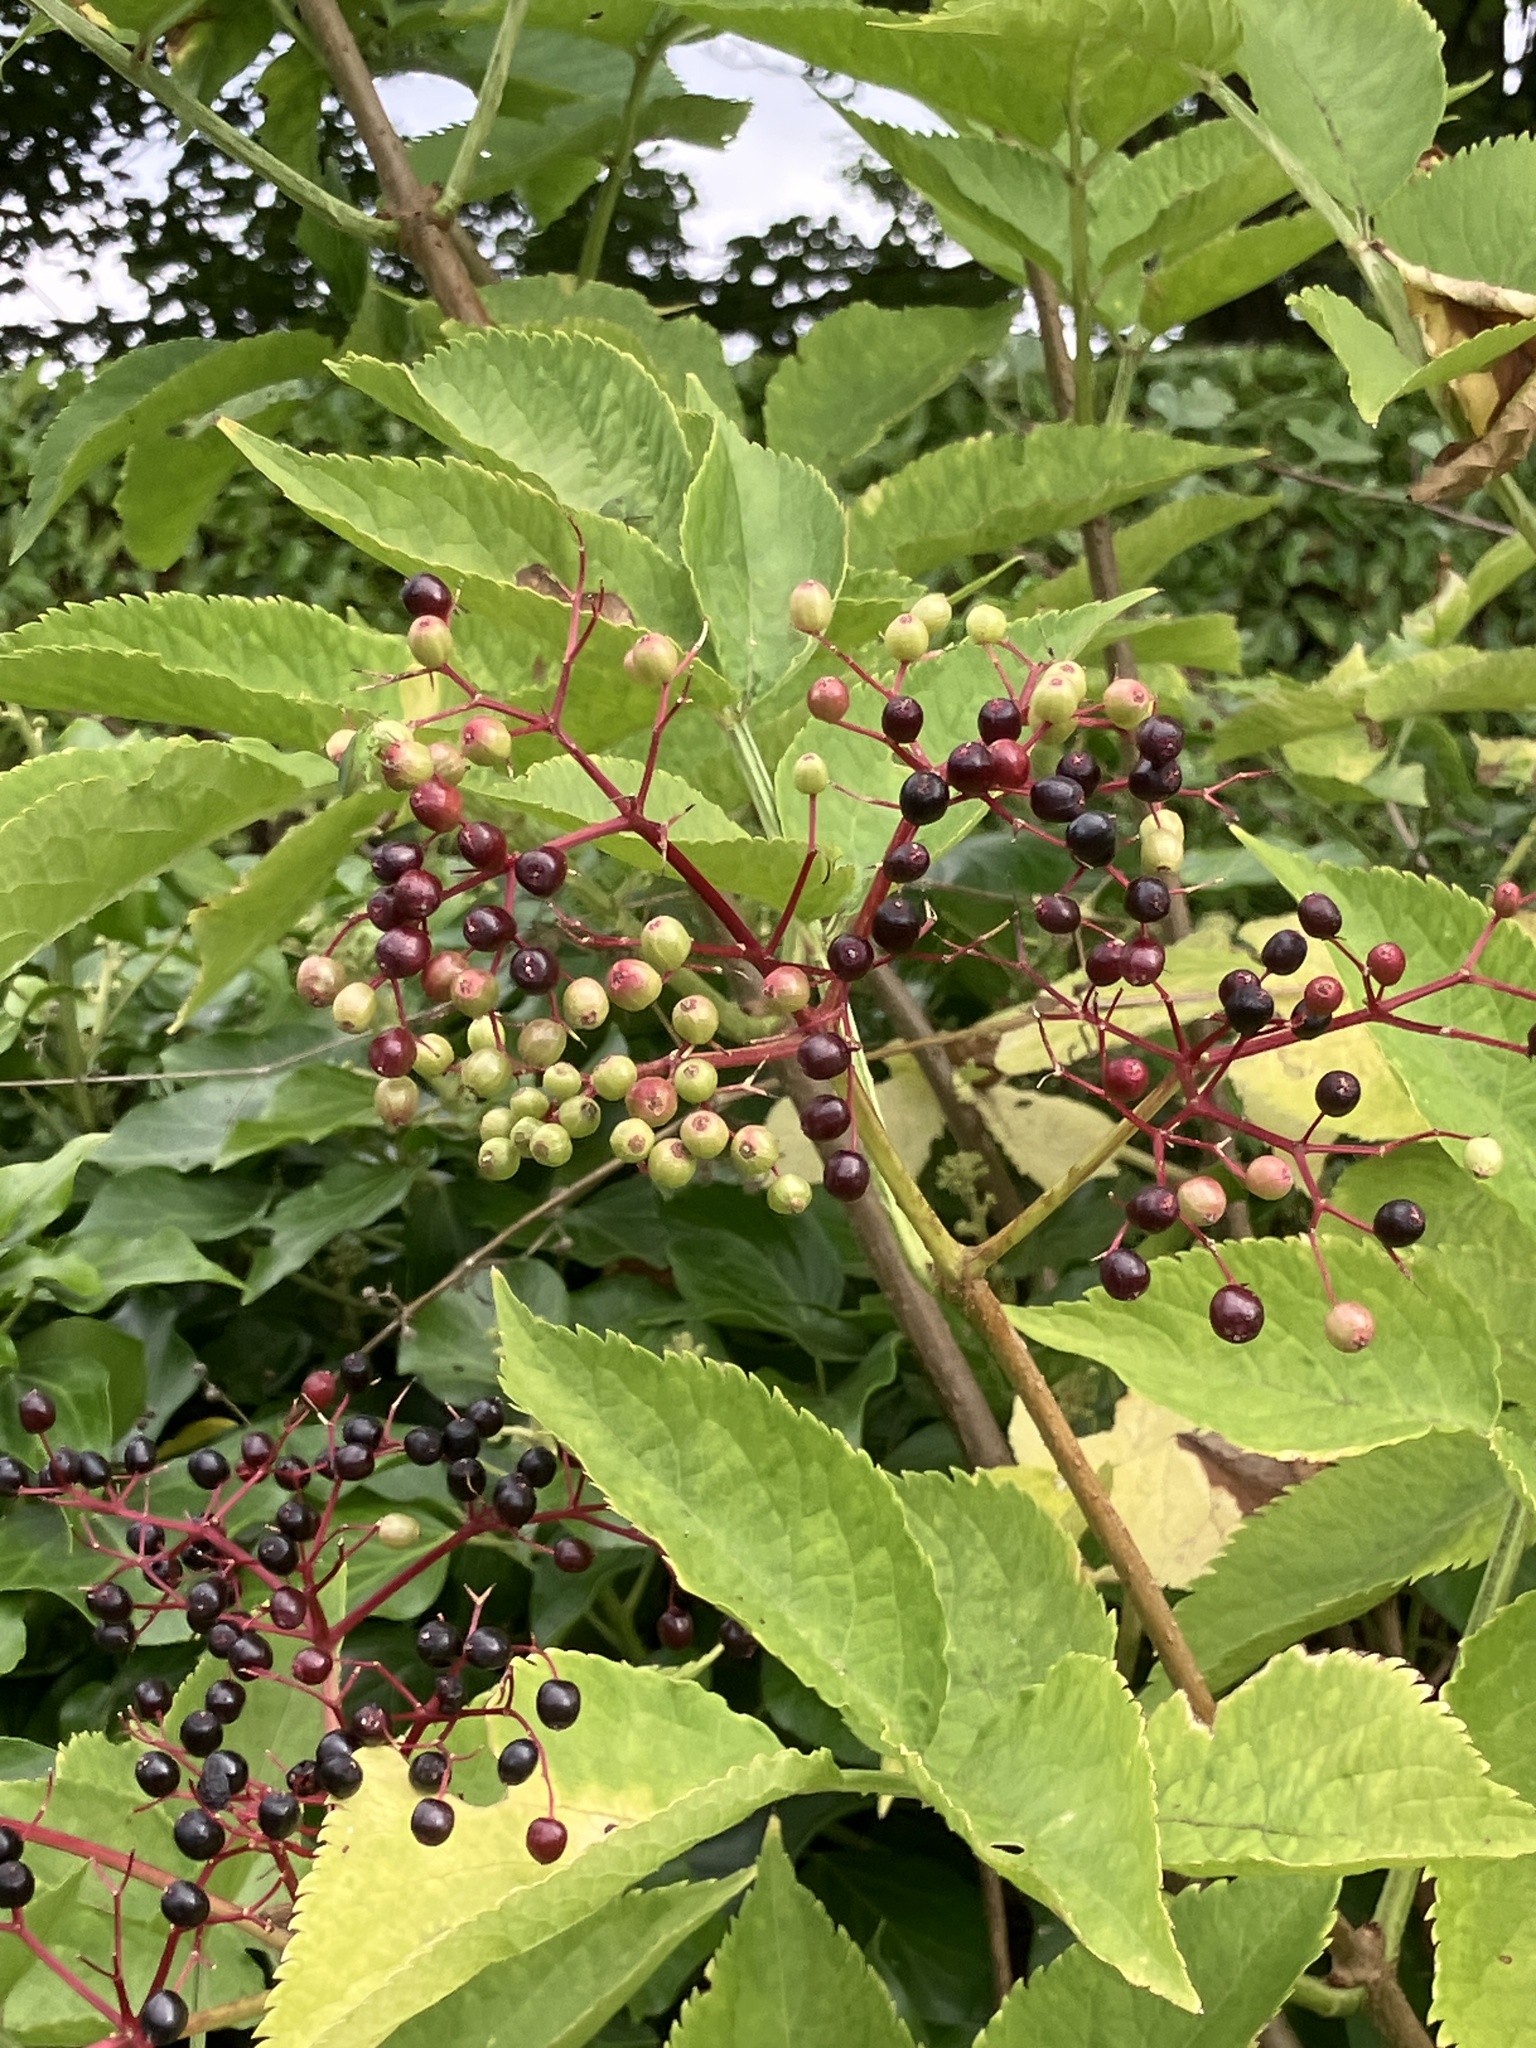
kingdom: Plantae
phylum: Tracheophyta
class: Magnoliopsida
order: Dipsacales
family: Viburnaceae
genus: Sambucus
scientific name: Sambucus nigra
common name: Elder
